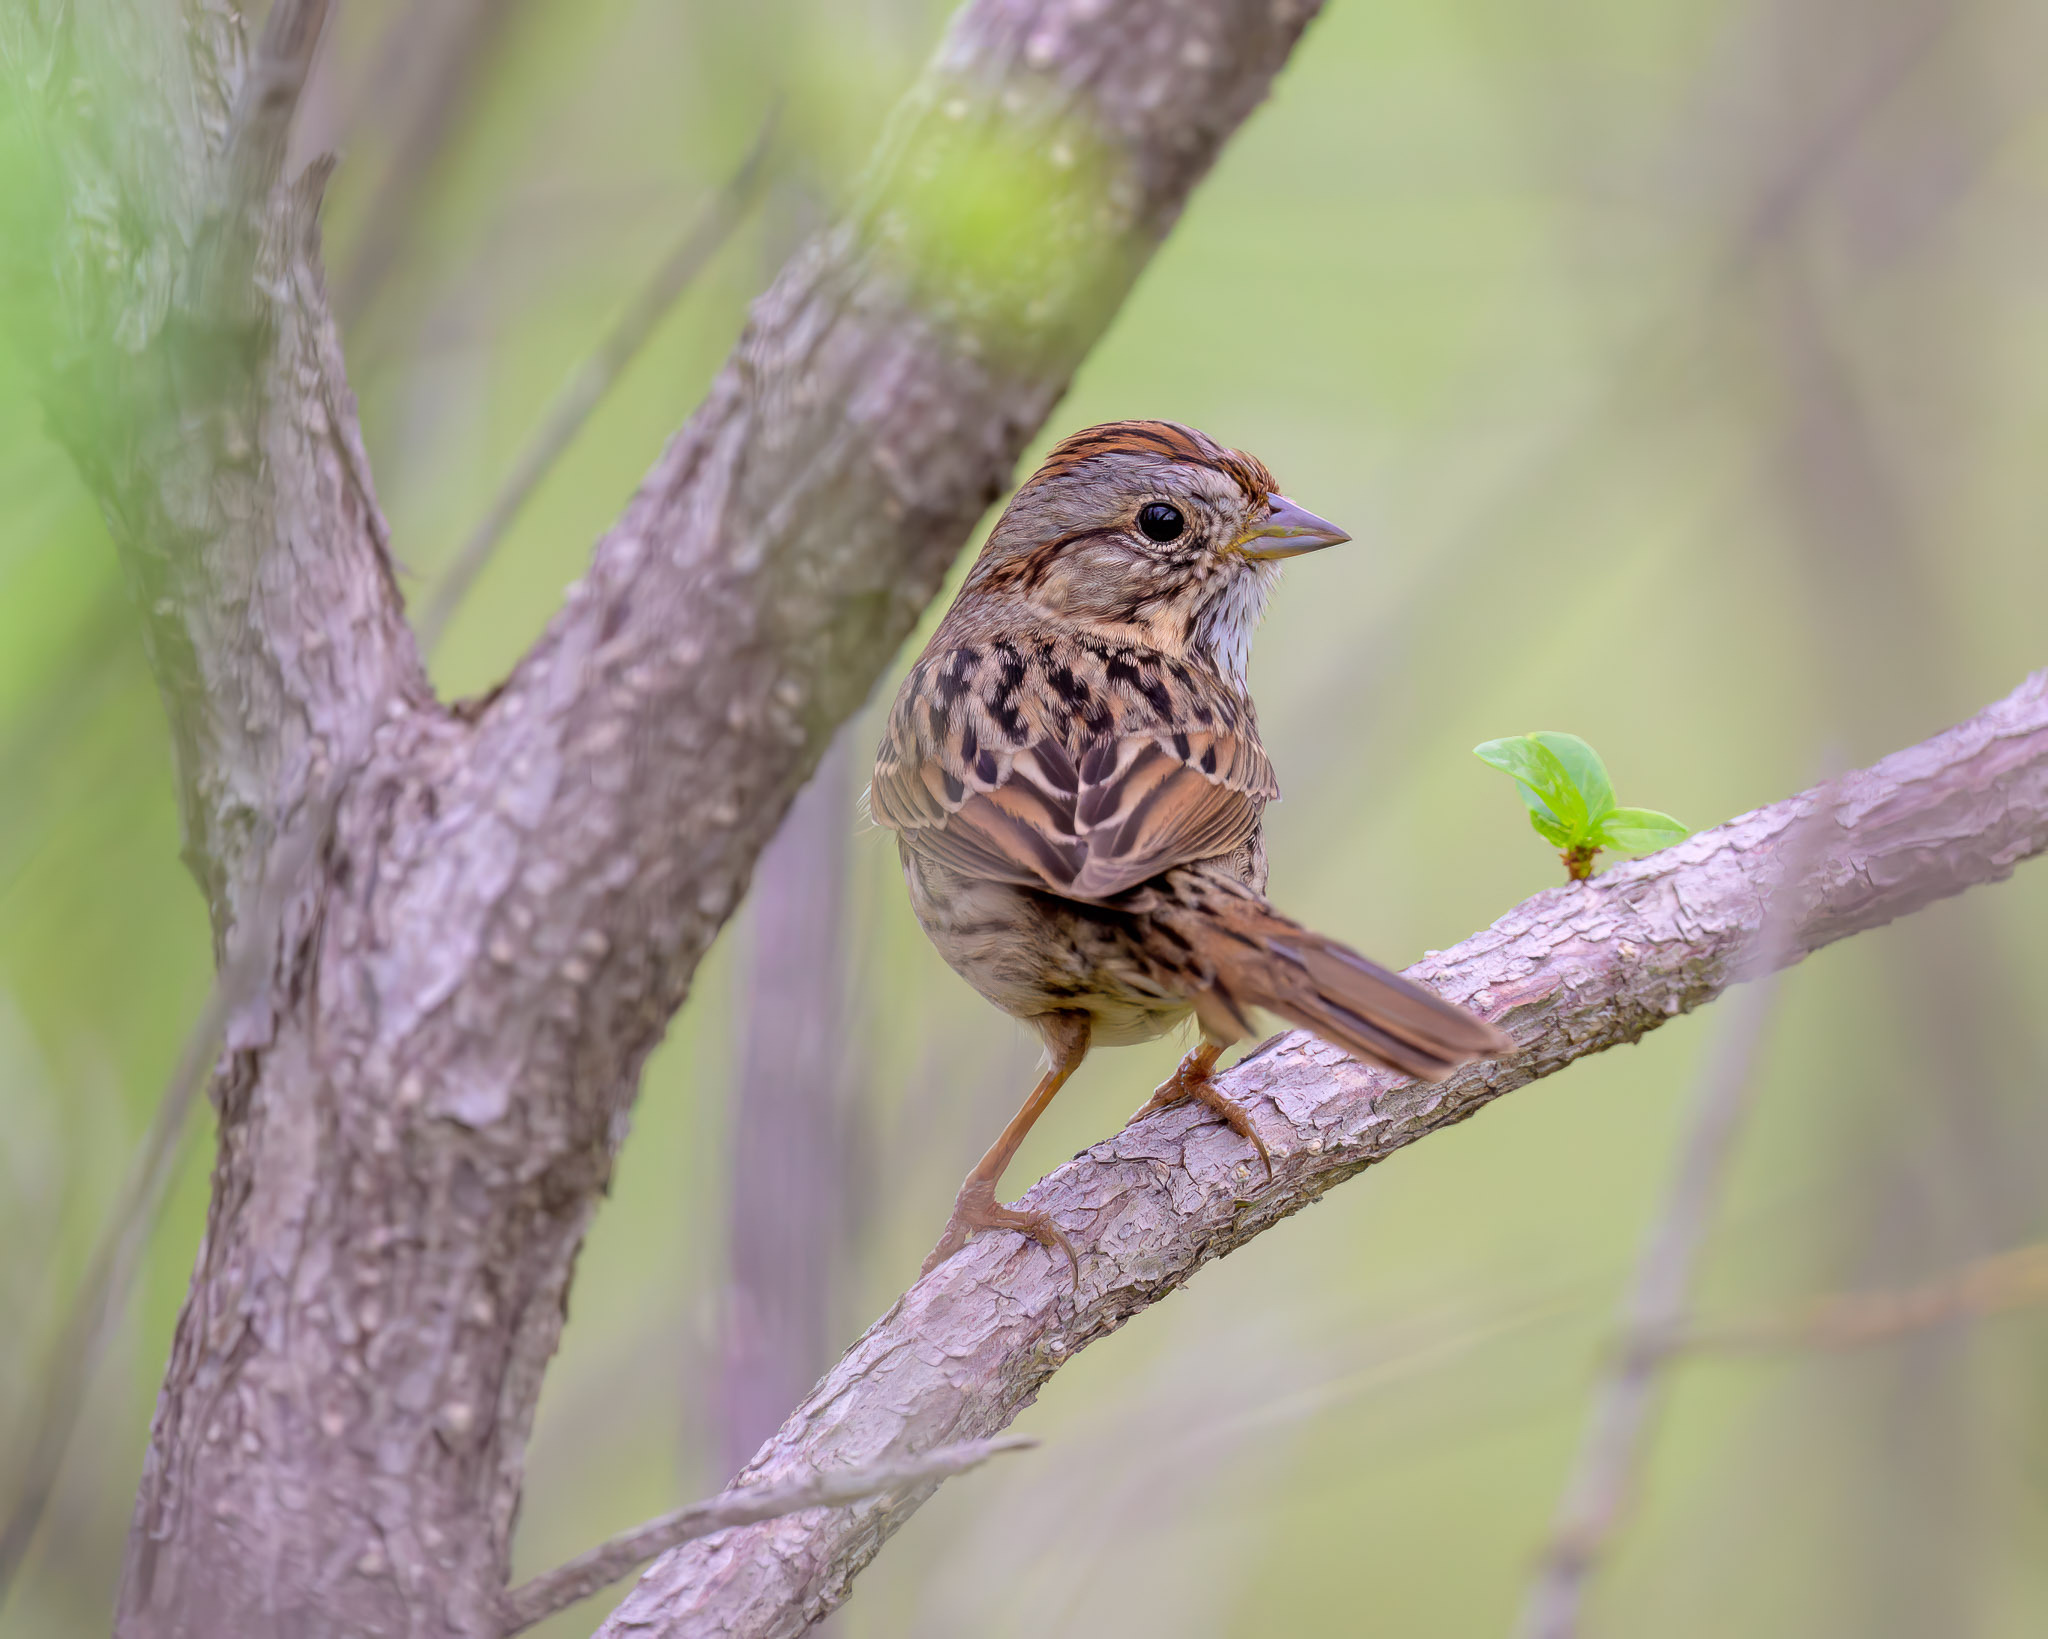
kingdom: Animalia
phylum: Chordata
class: Aves
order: Passeriformes
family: Passerellidae
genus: Melospiza
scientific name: Melospiza lincolnii
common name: Lincoln's sparrow
